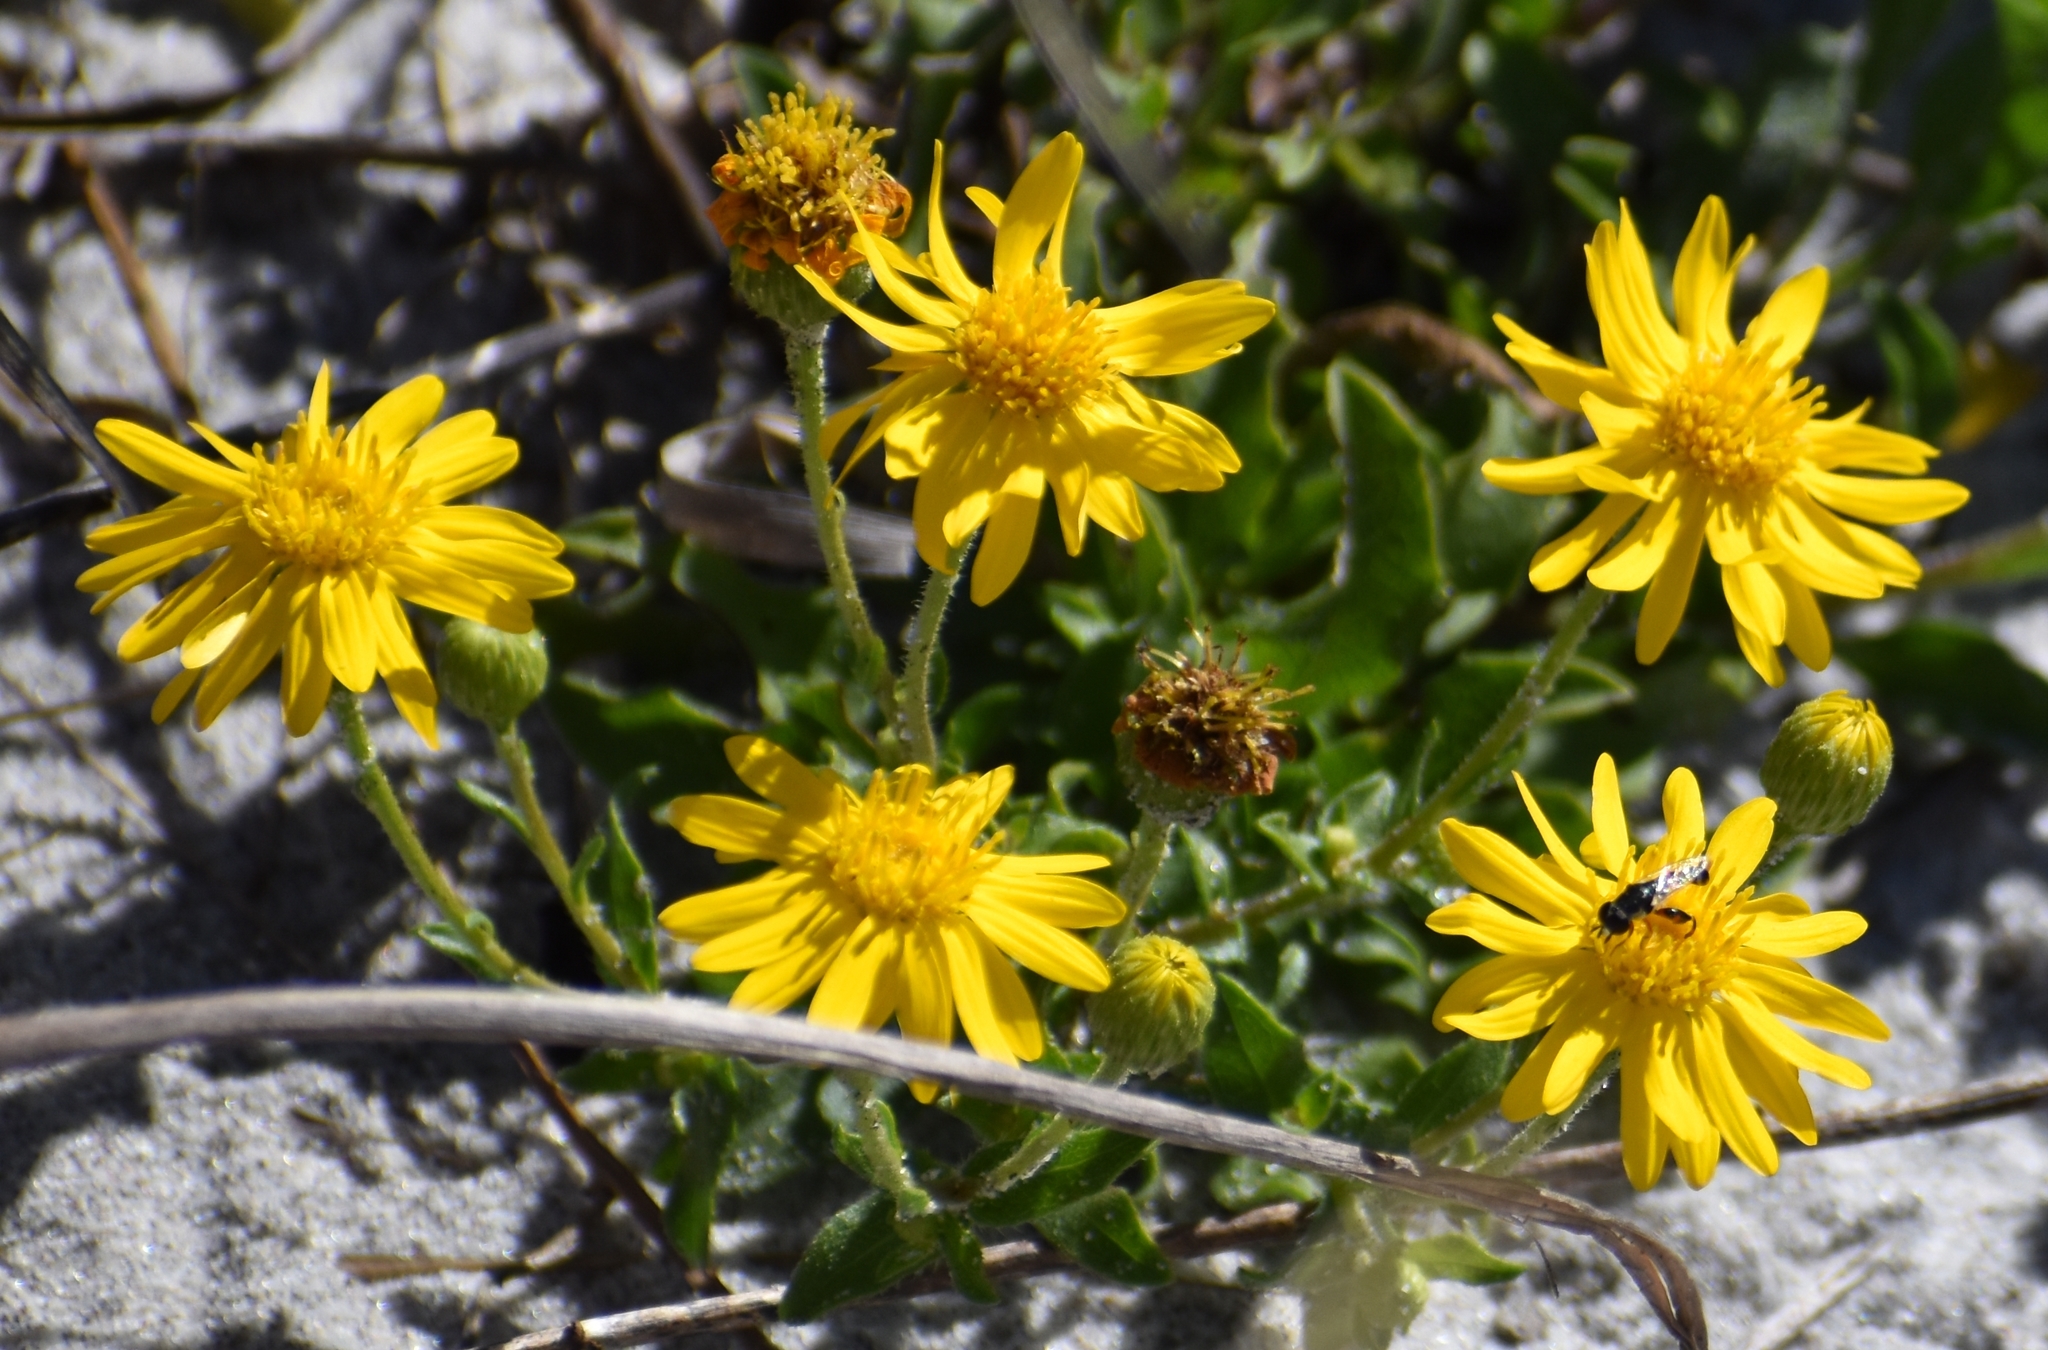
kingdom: Plantae
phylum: Tracheophyta
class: Magnoliopsida
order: Asterales
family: Asteraceae
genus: Heterotheca
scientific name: Heterotheca subaxillaris
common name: Camphorweed
